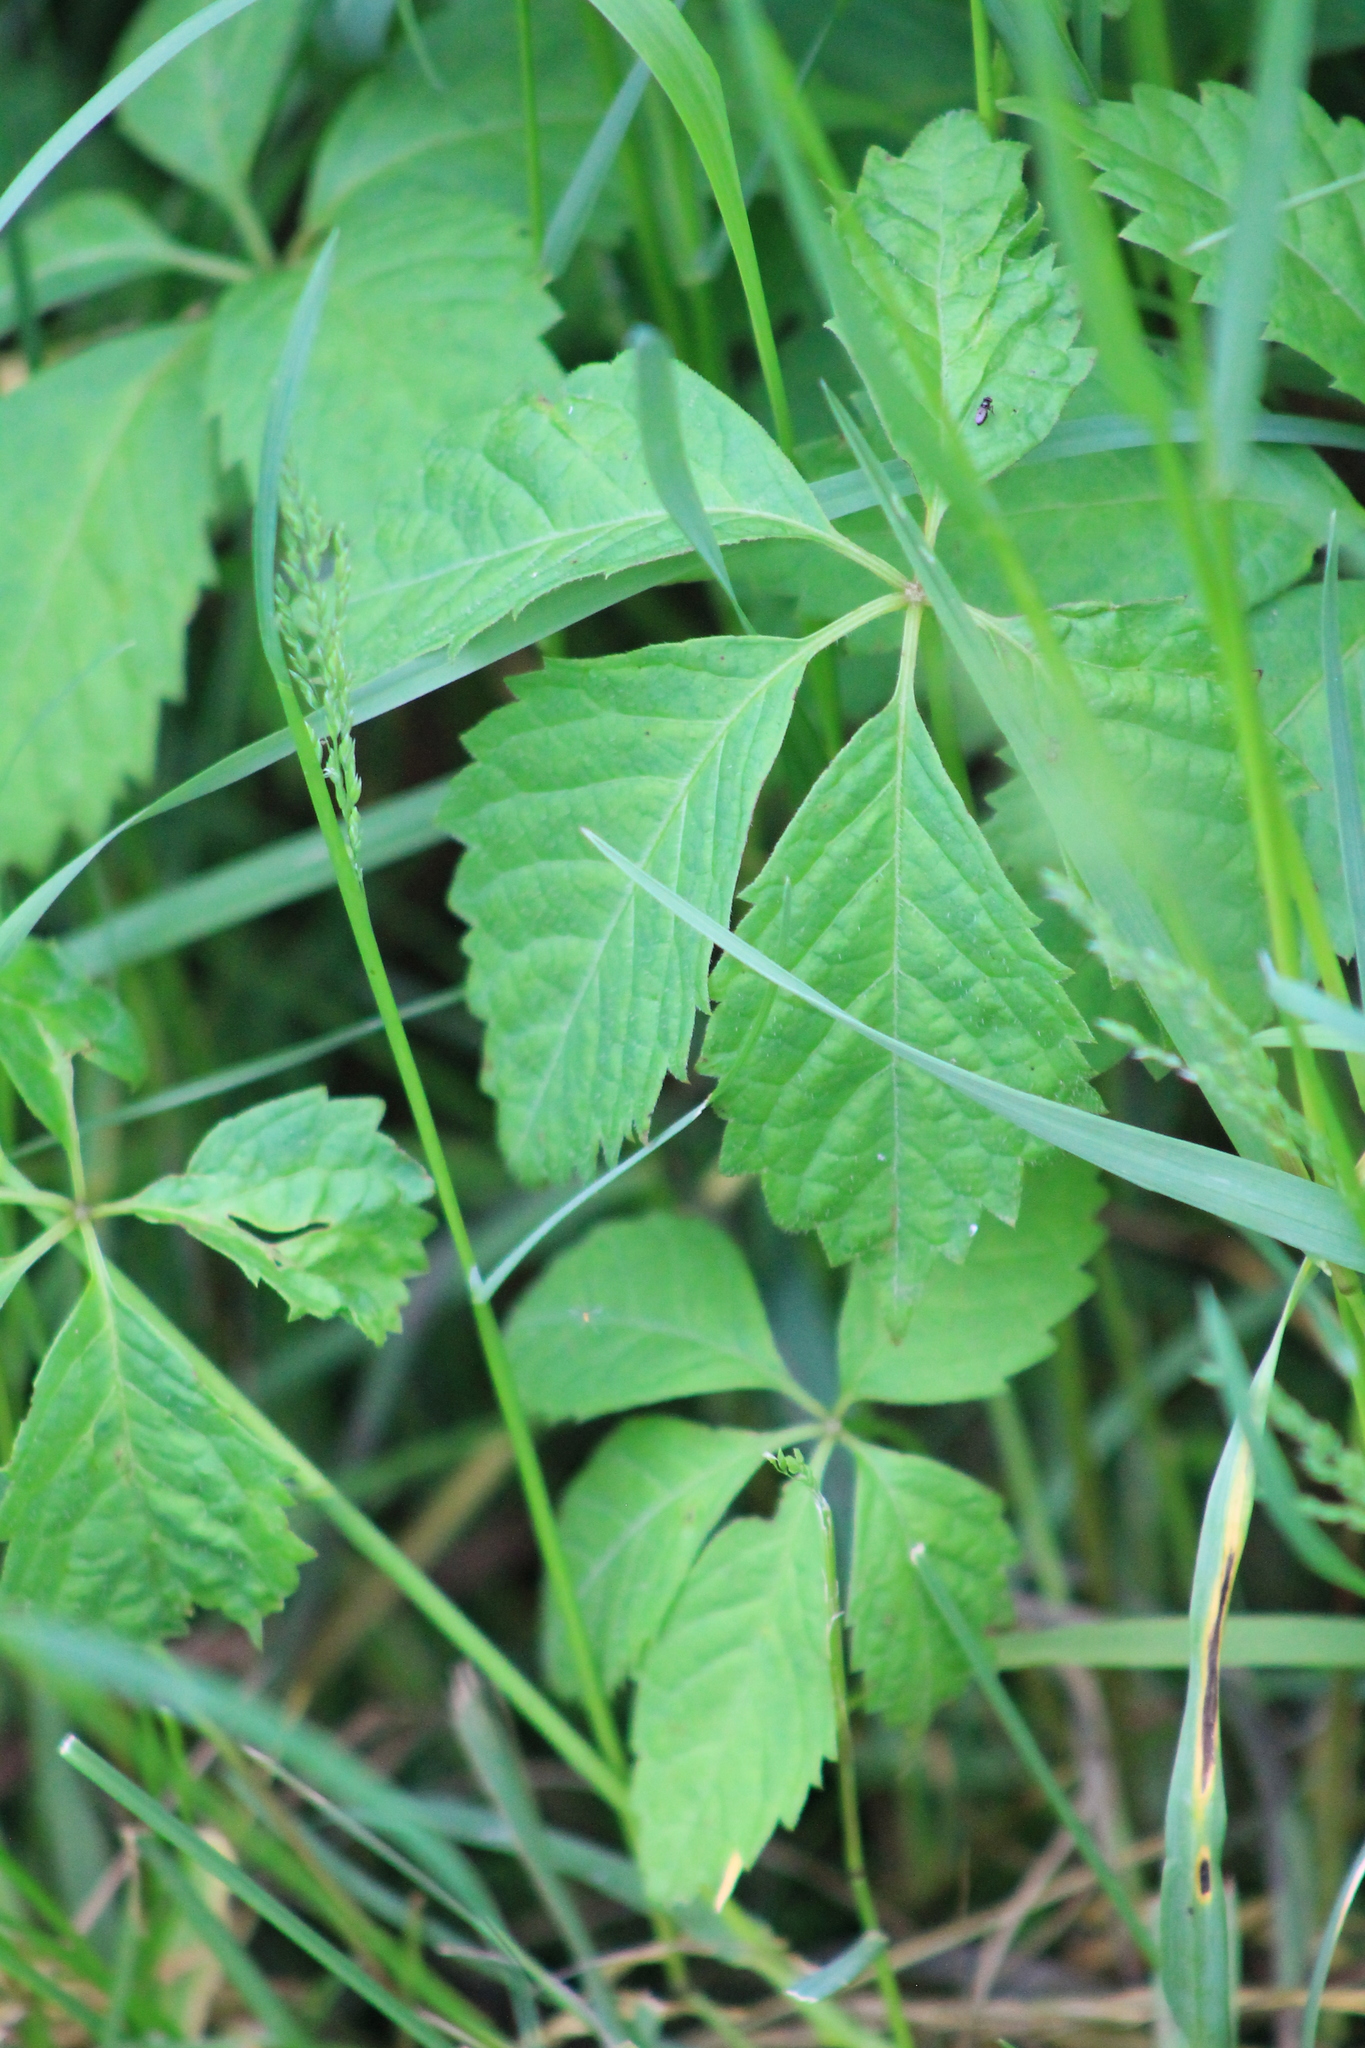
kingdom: Plantae
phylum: Tracheophyta
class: Magnoliopsida
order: Vitales
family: Vitaceae
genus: Parthenocissus
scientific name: Parthenocissus quinquefolia
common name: Virginia-creeper
